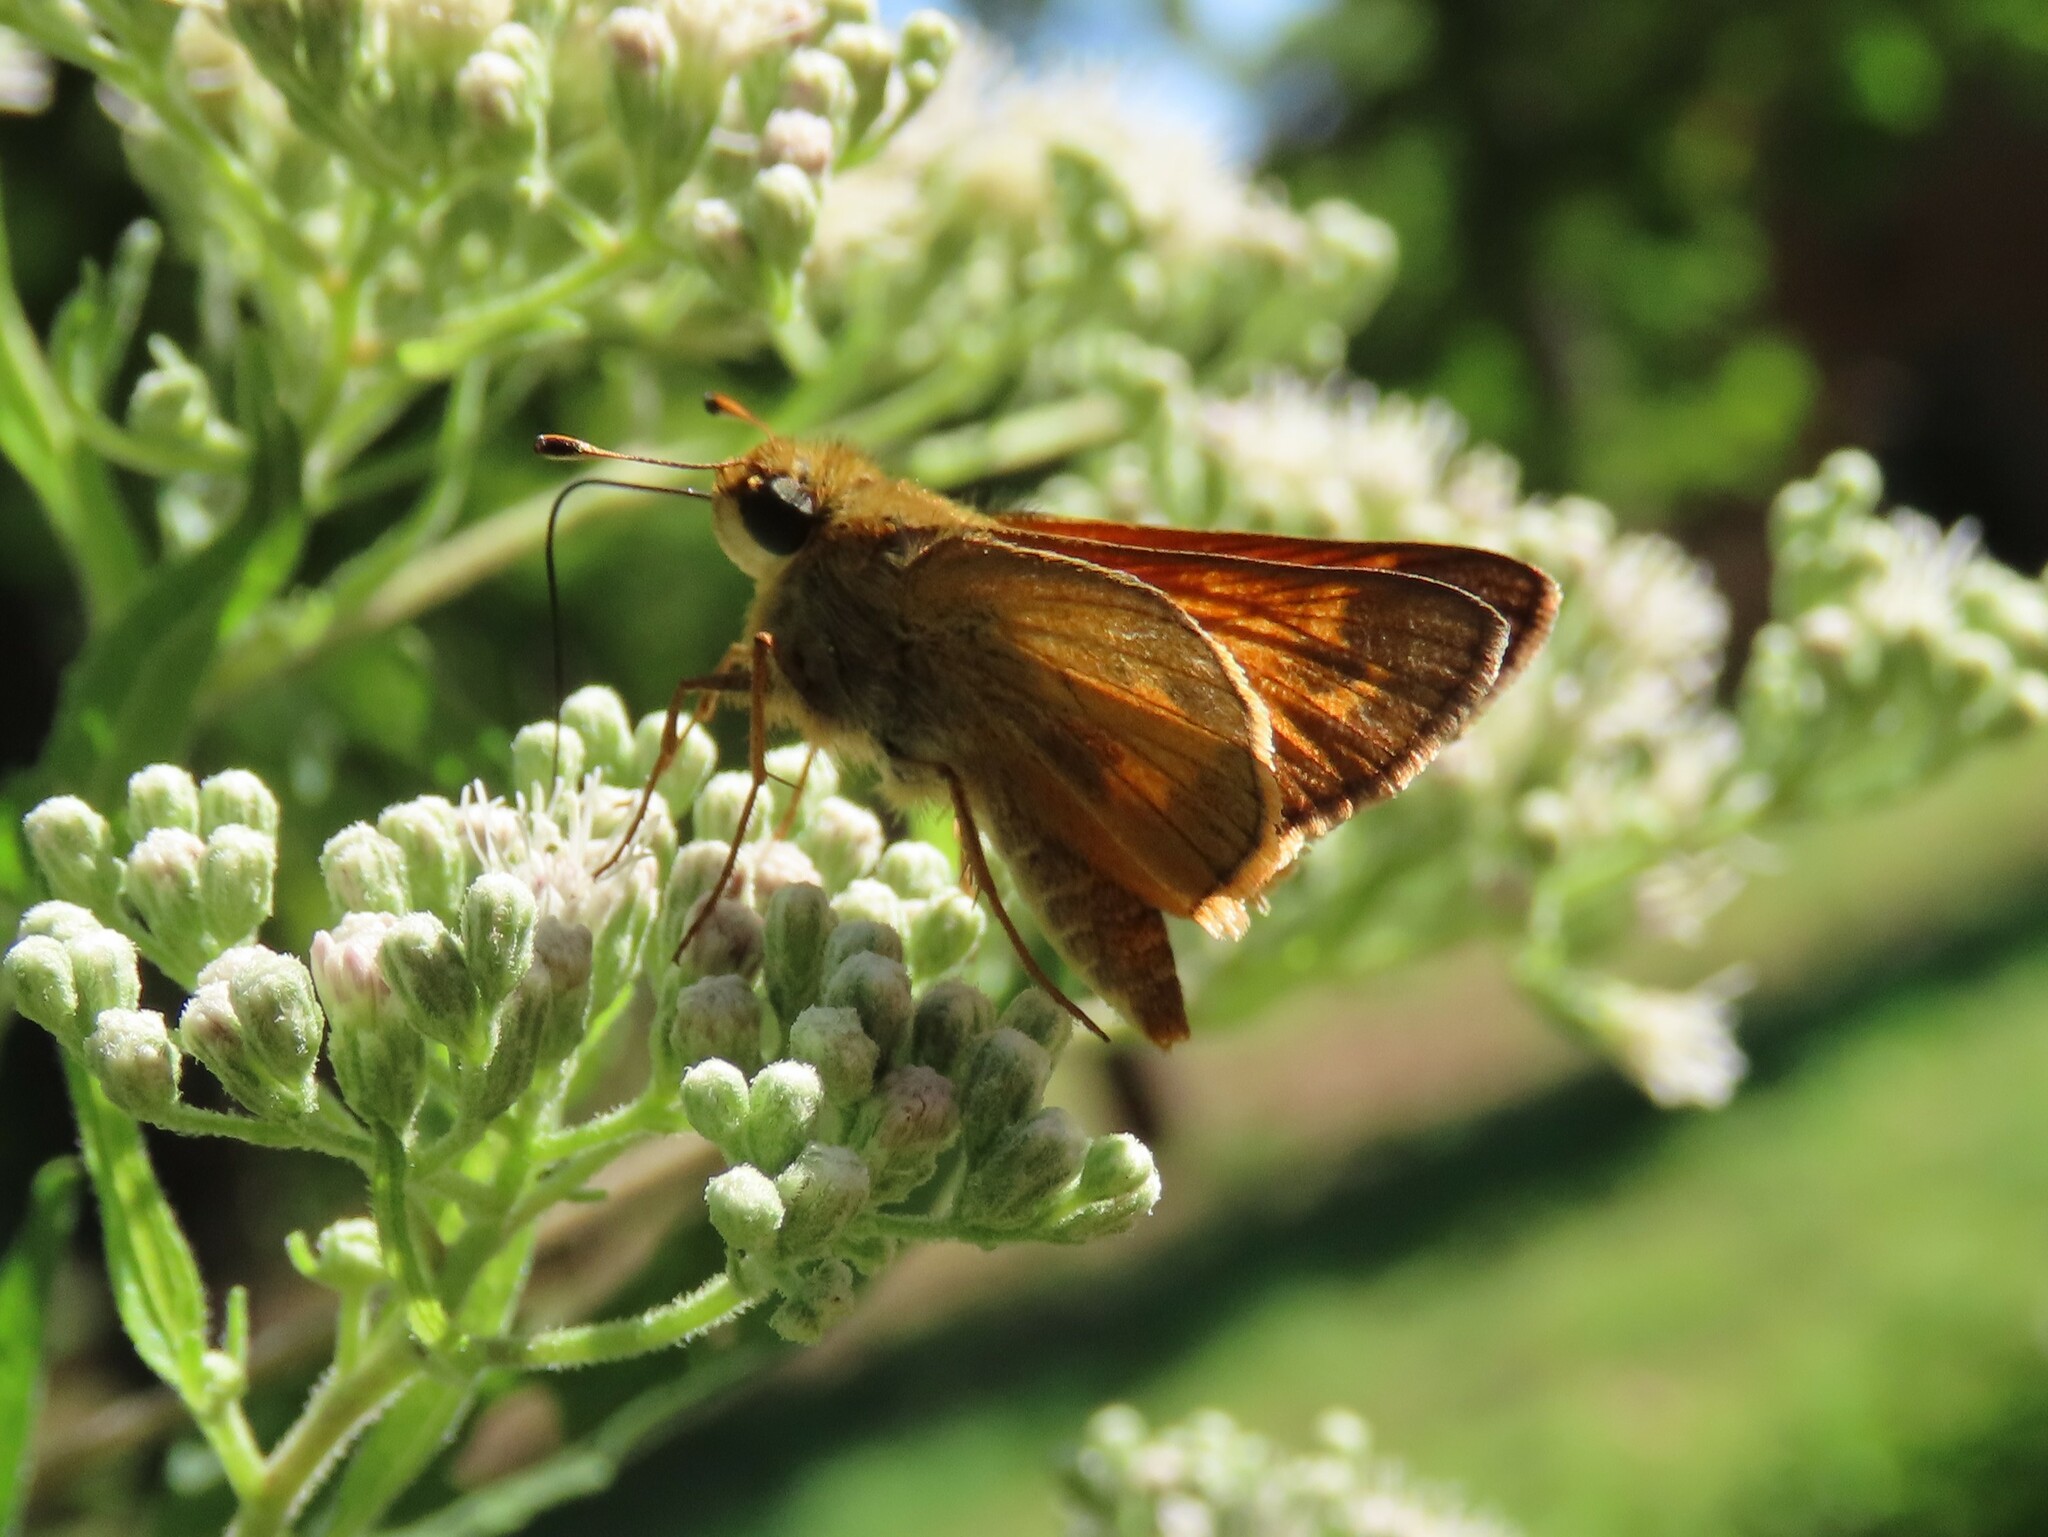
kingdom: Animalia
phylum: Arthropoda
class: Insecta
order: Lepidoptera
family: Hesperiidae
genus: Atalopedes
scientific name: Atalopedes
